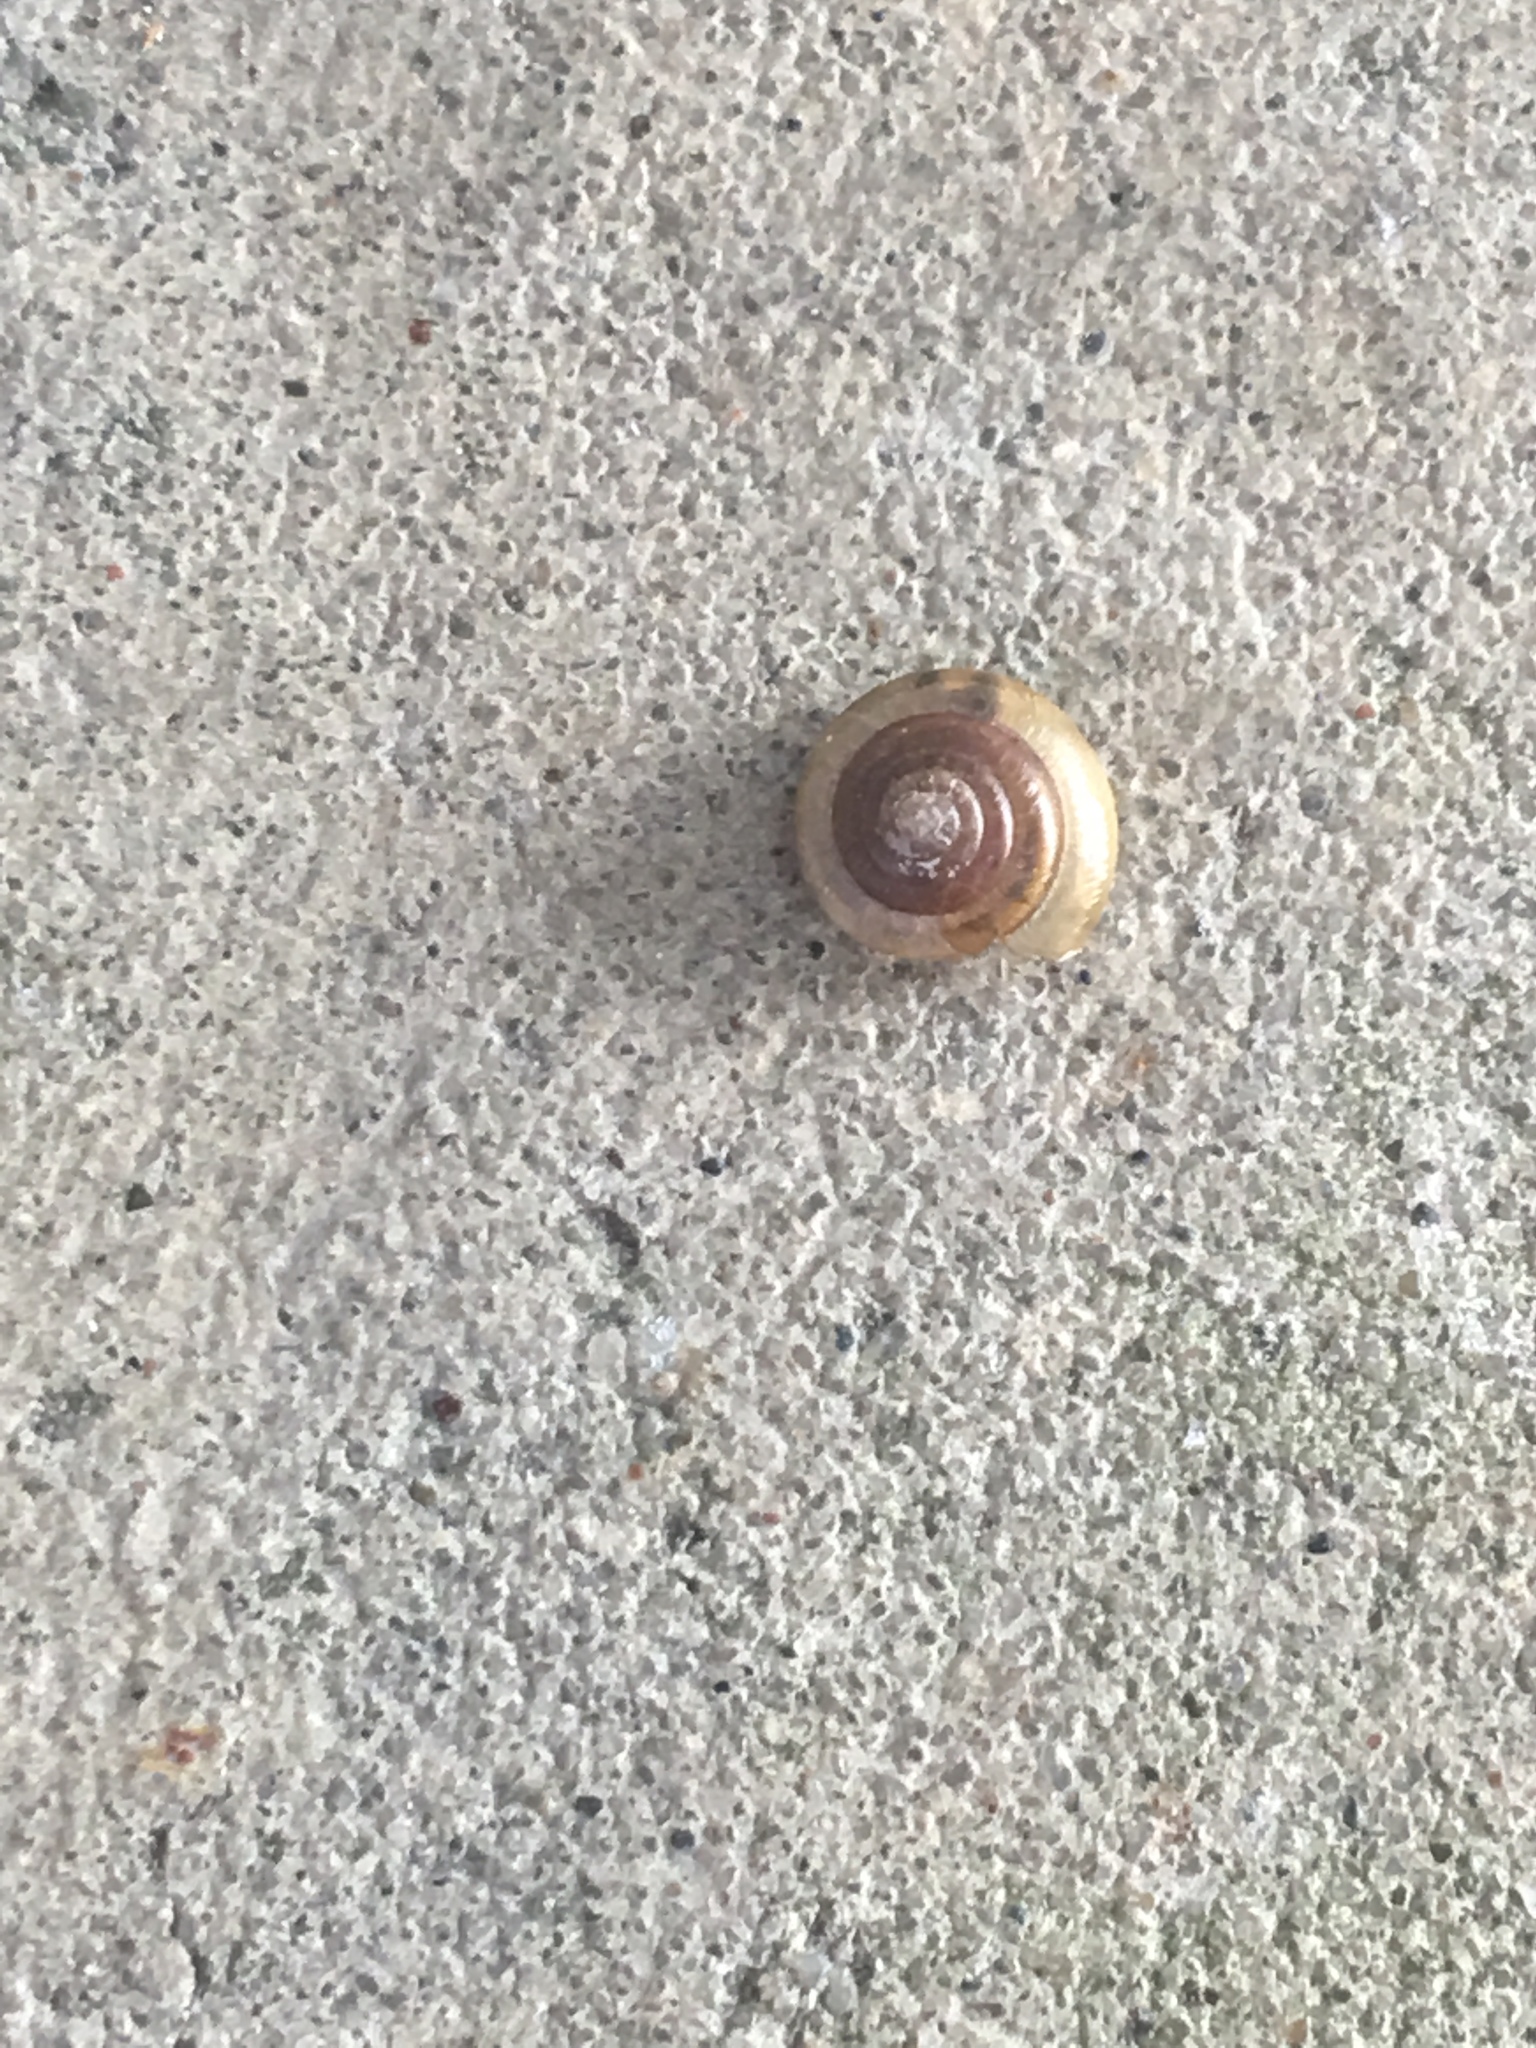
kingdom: Animalia
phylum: Mollusca
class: Gastropoda
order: Stylommatophora
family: Camaenidae
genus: Bradybaena
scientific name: Bradybaena similaris
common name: Asian trampsnail
